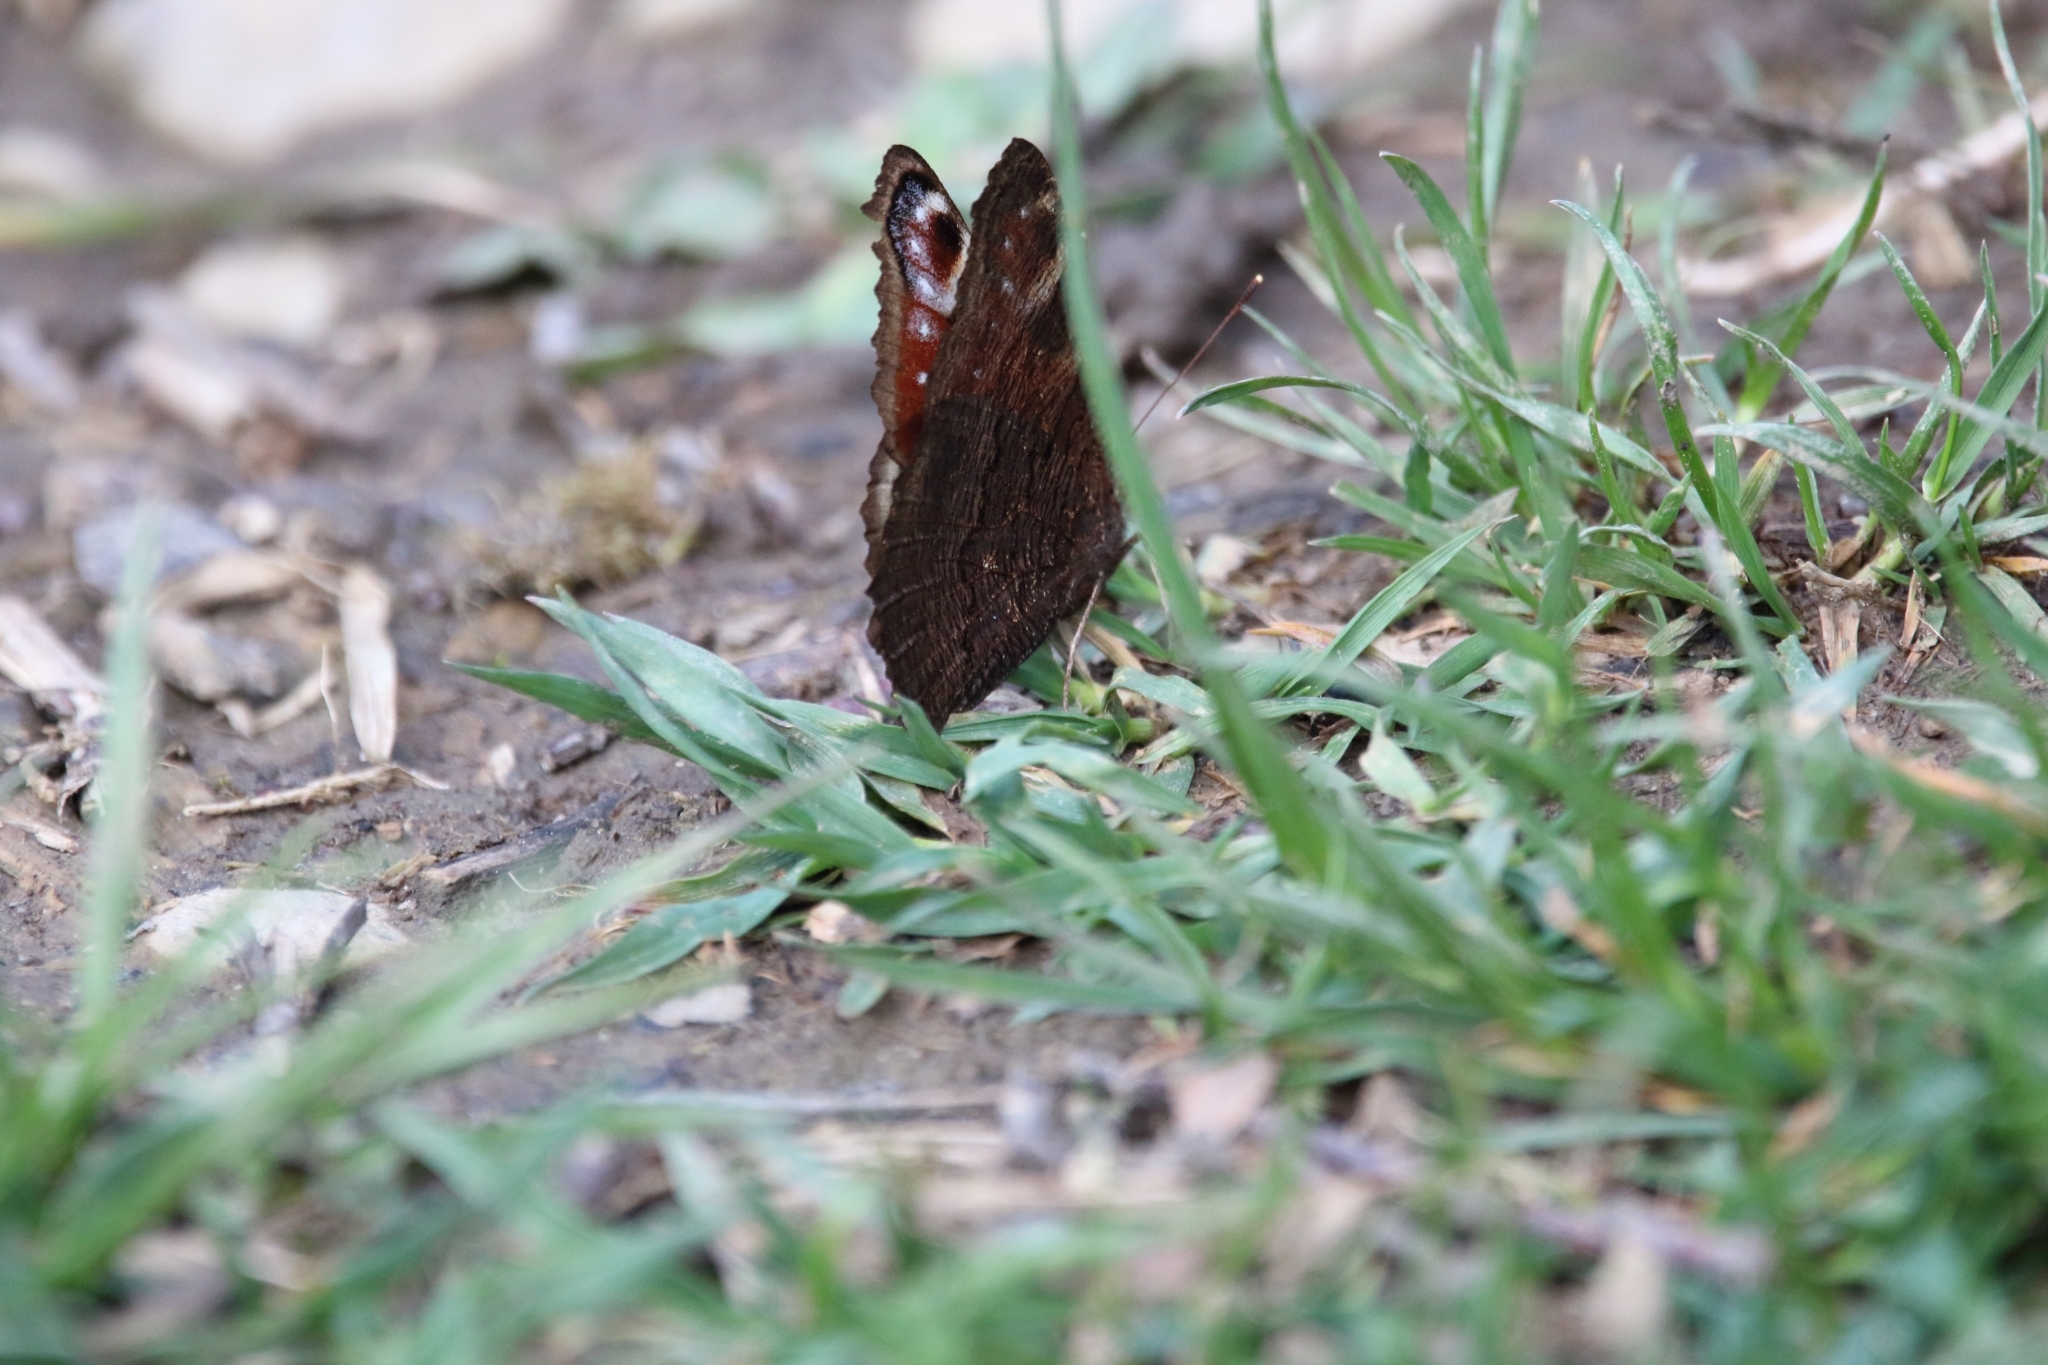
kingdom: Animalia
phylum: Arthropoda
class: Insecta
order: Lepidoptera
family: Nymphalidae
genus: Aglais
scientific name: Aglais io
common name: Peacock
